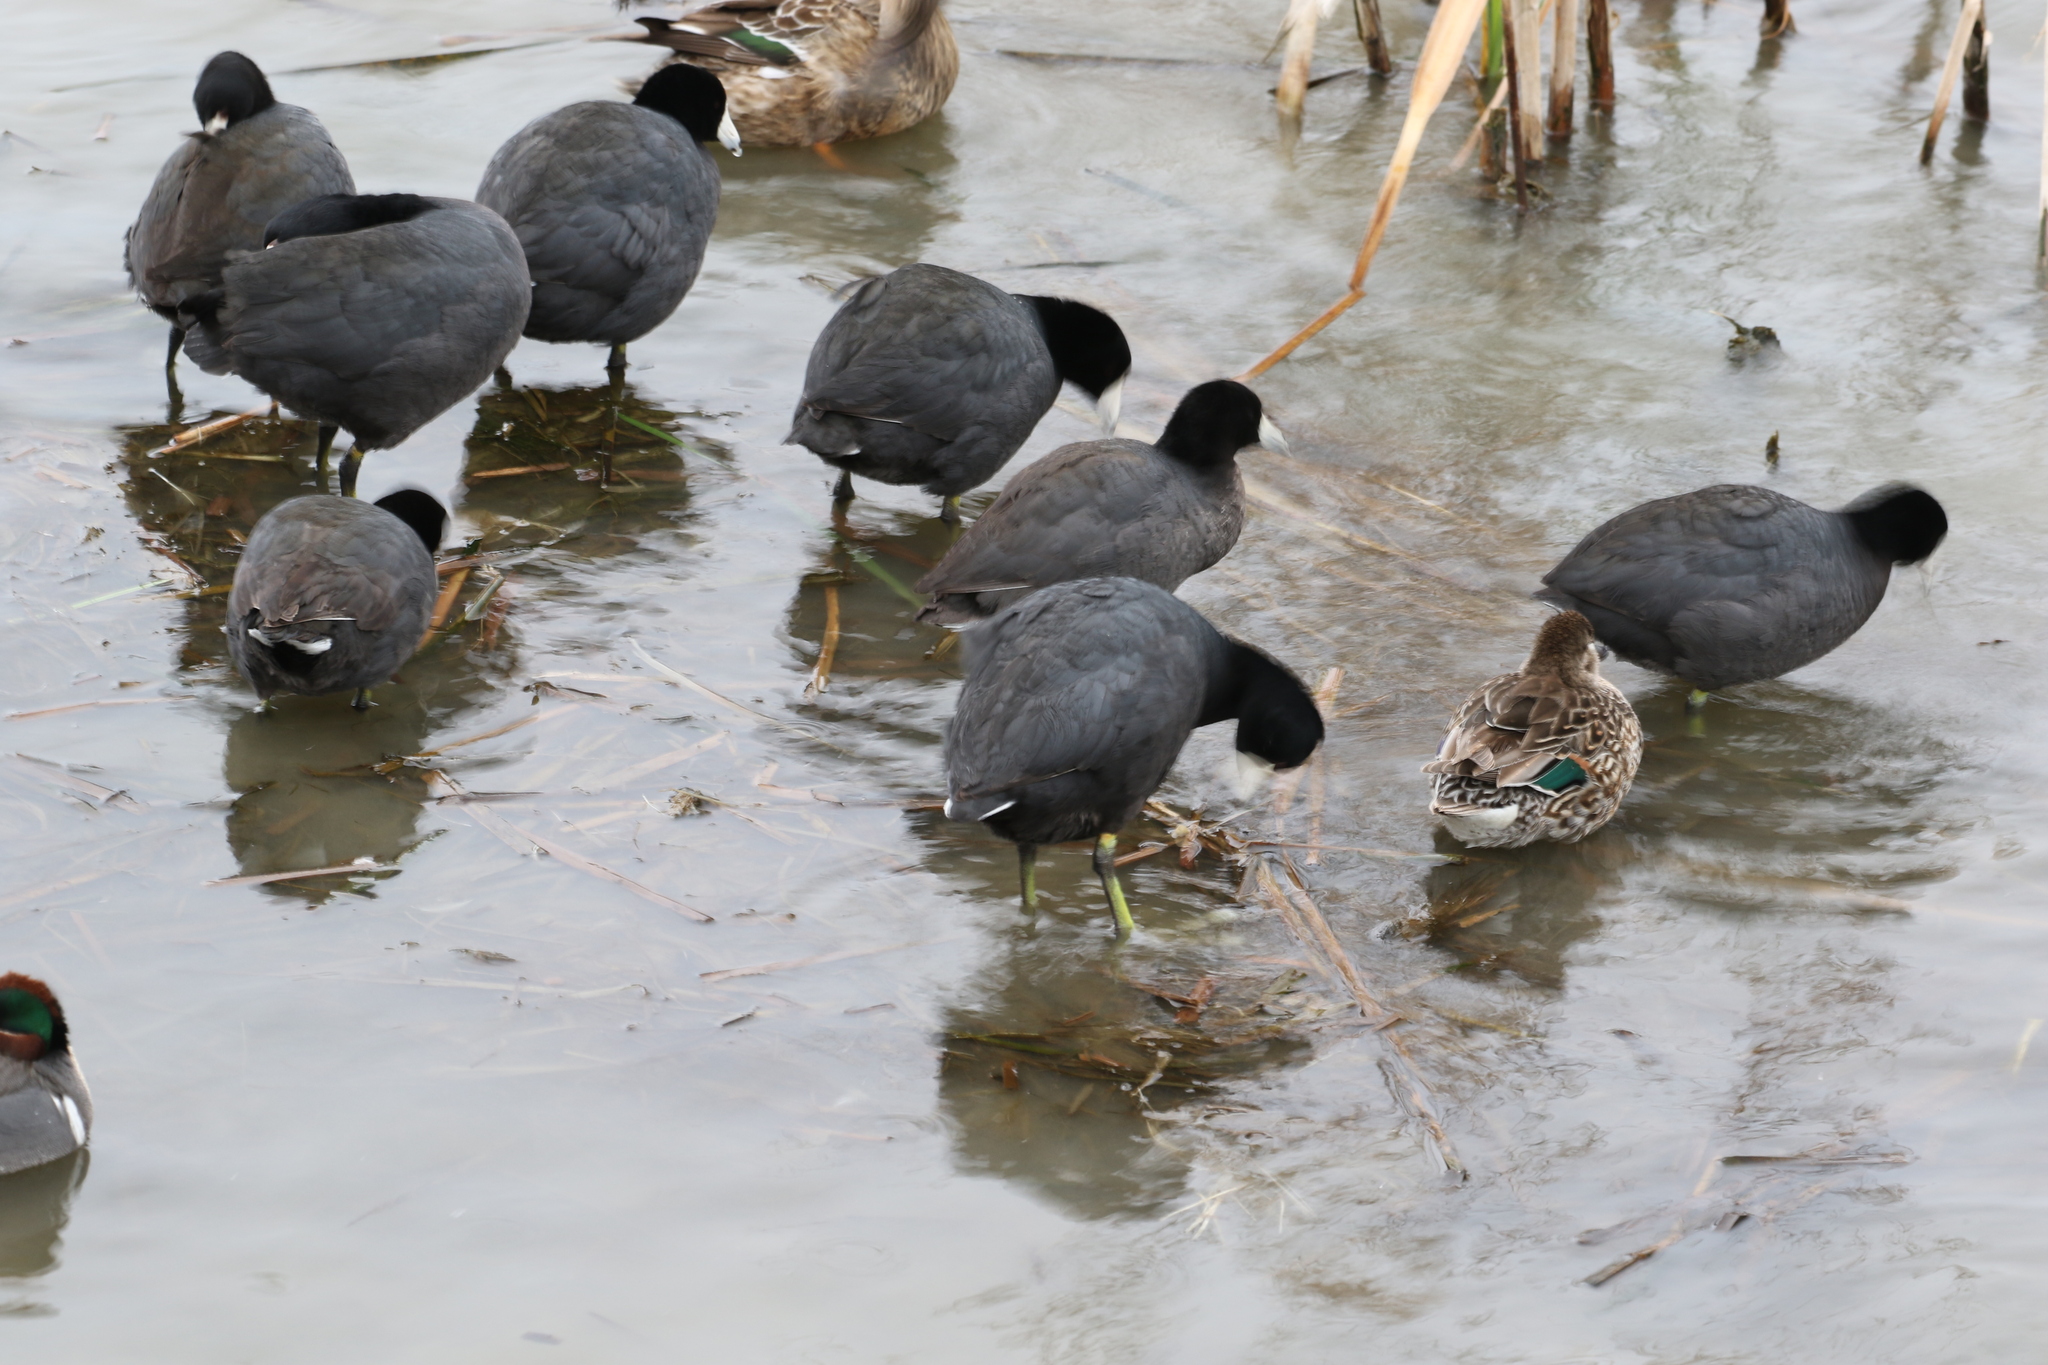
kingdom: Animalia
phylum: Chordata
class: Aves
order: Gruiformes
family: Rallidae
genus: Fulica
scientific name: Fulica americana
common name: American coot
